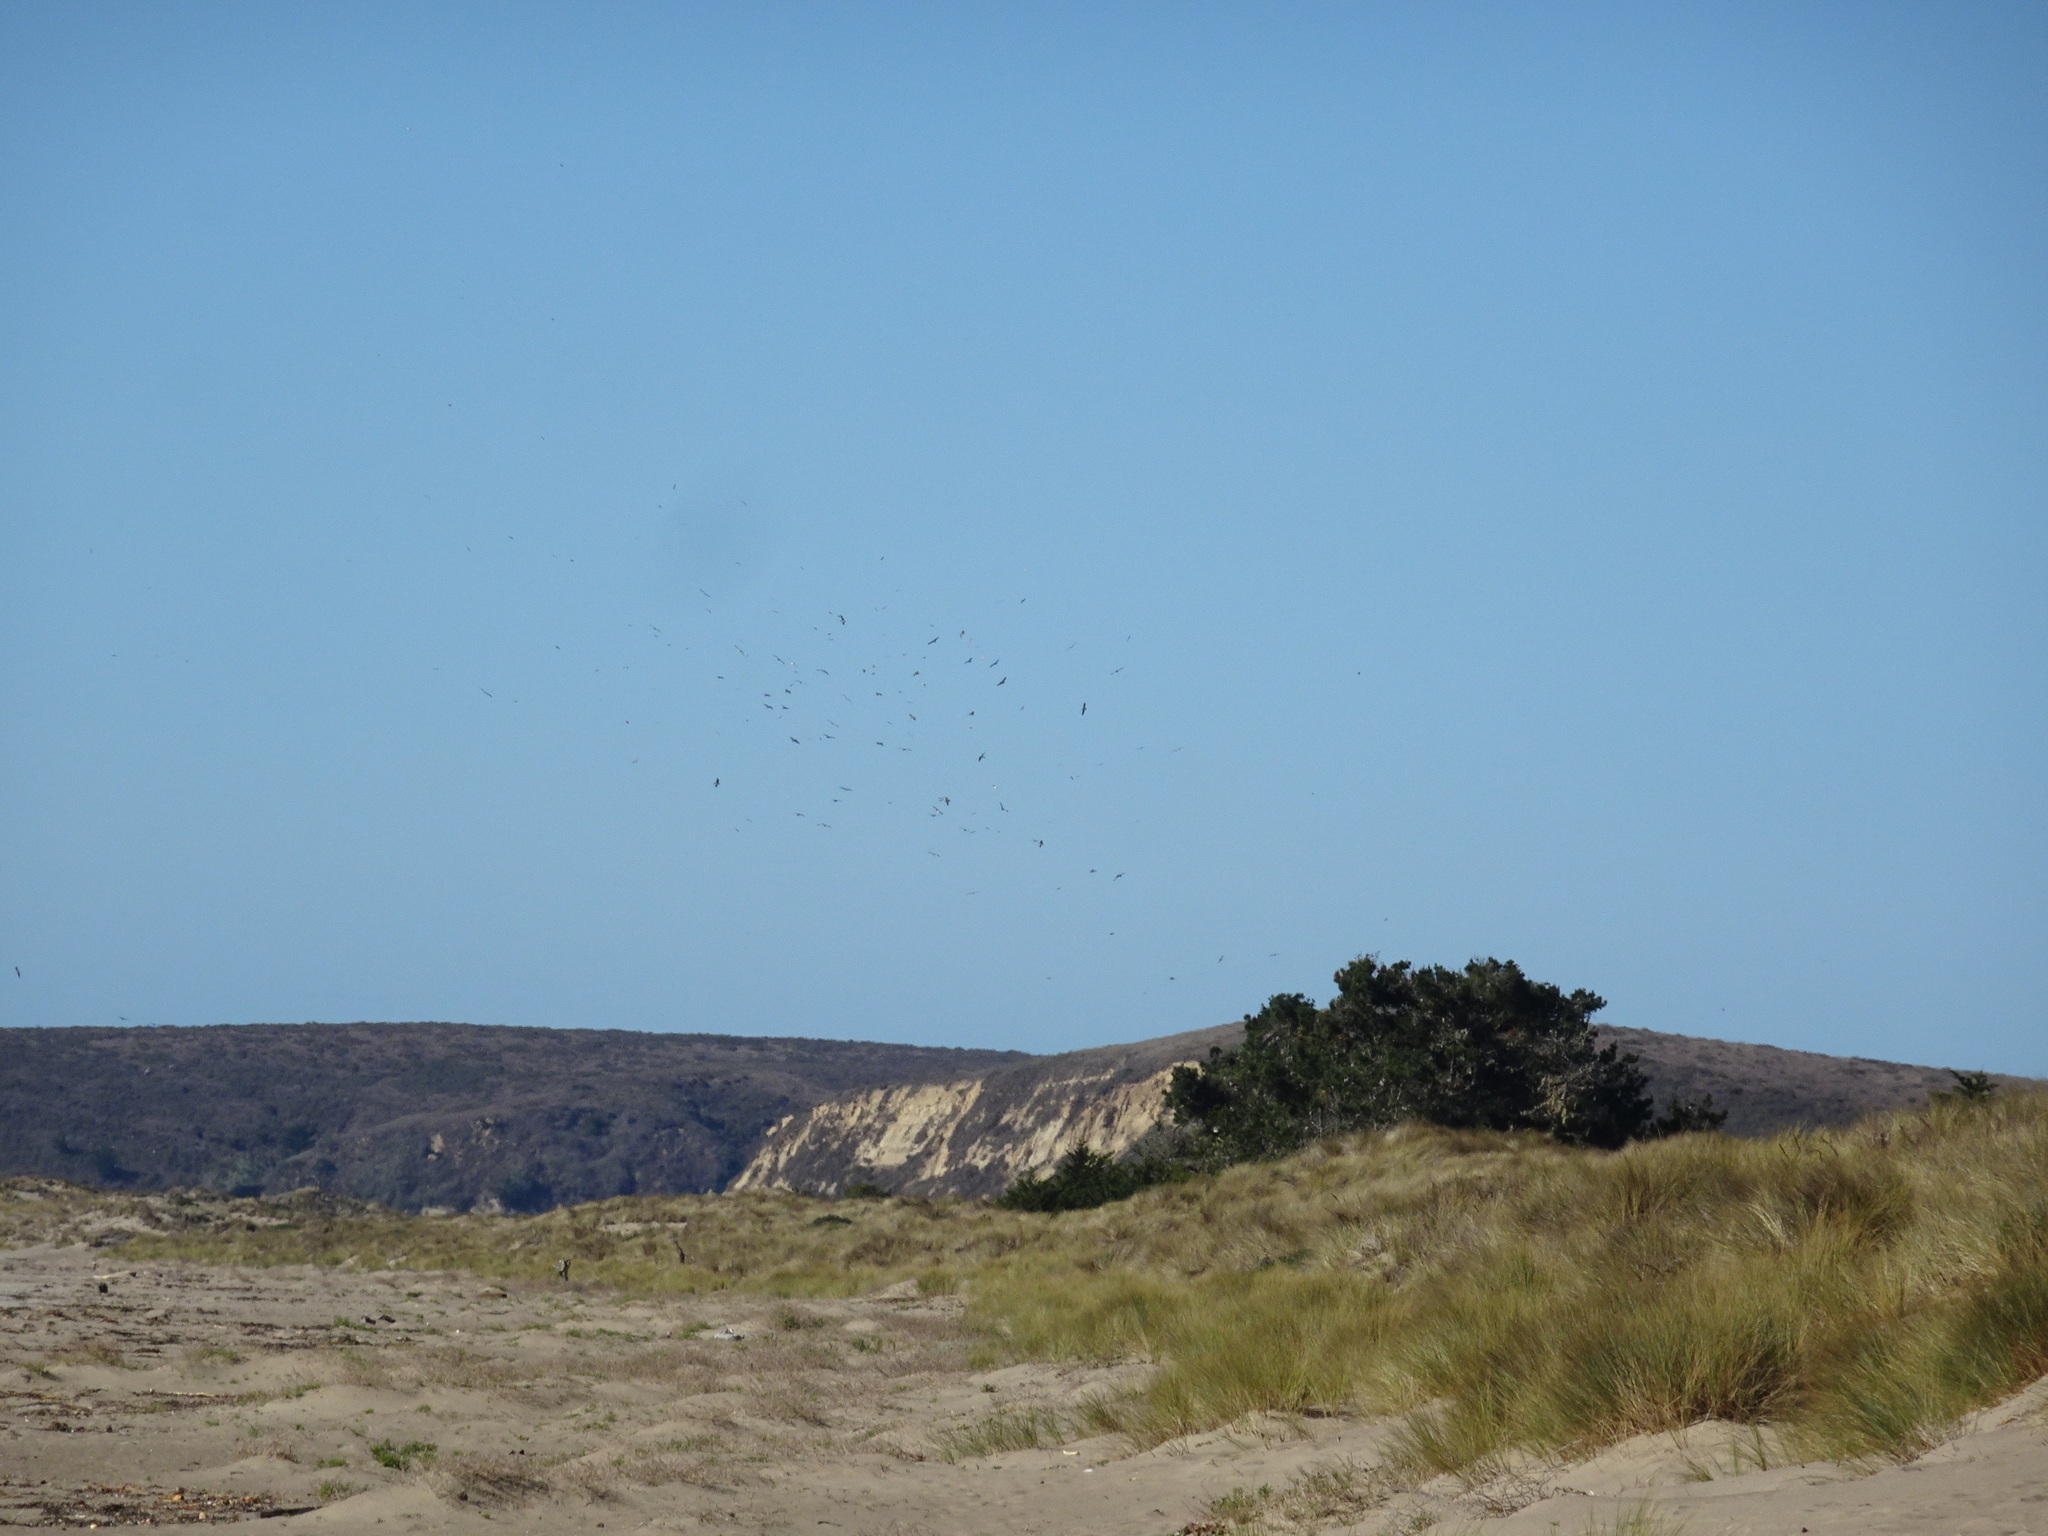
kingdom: Animalia
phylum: Chordata
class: Aves
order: Pelecaniformes
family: Pelecanidae
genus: Pelecanus
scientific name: Pelecanus occidentalis
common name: Brown pelican
